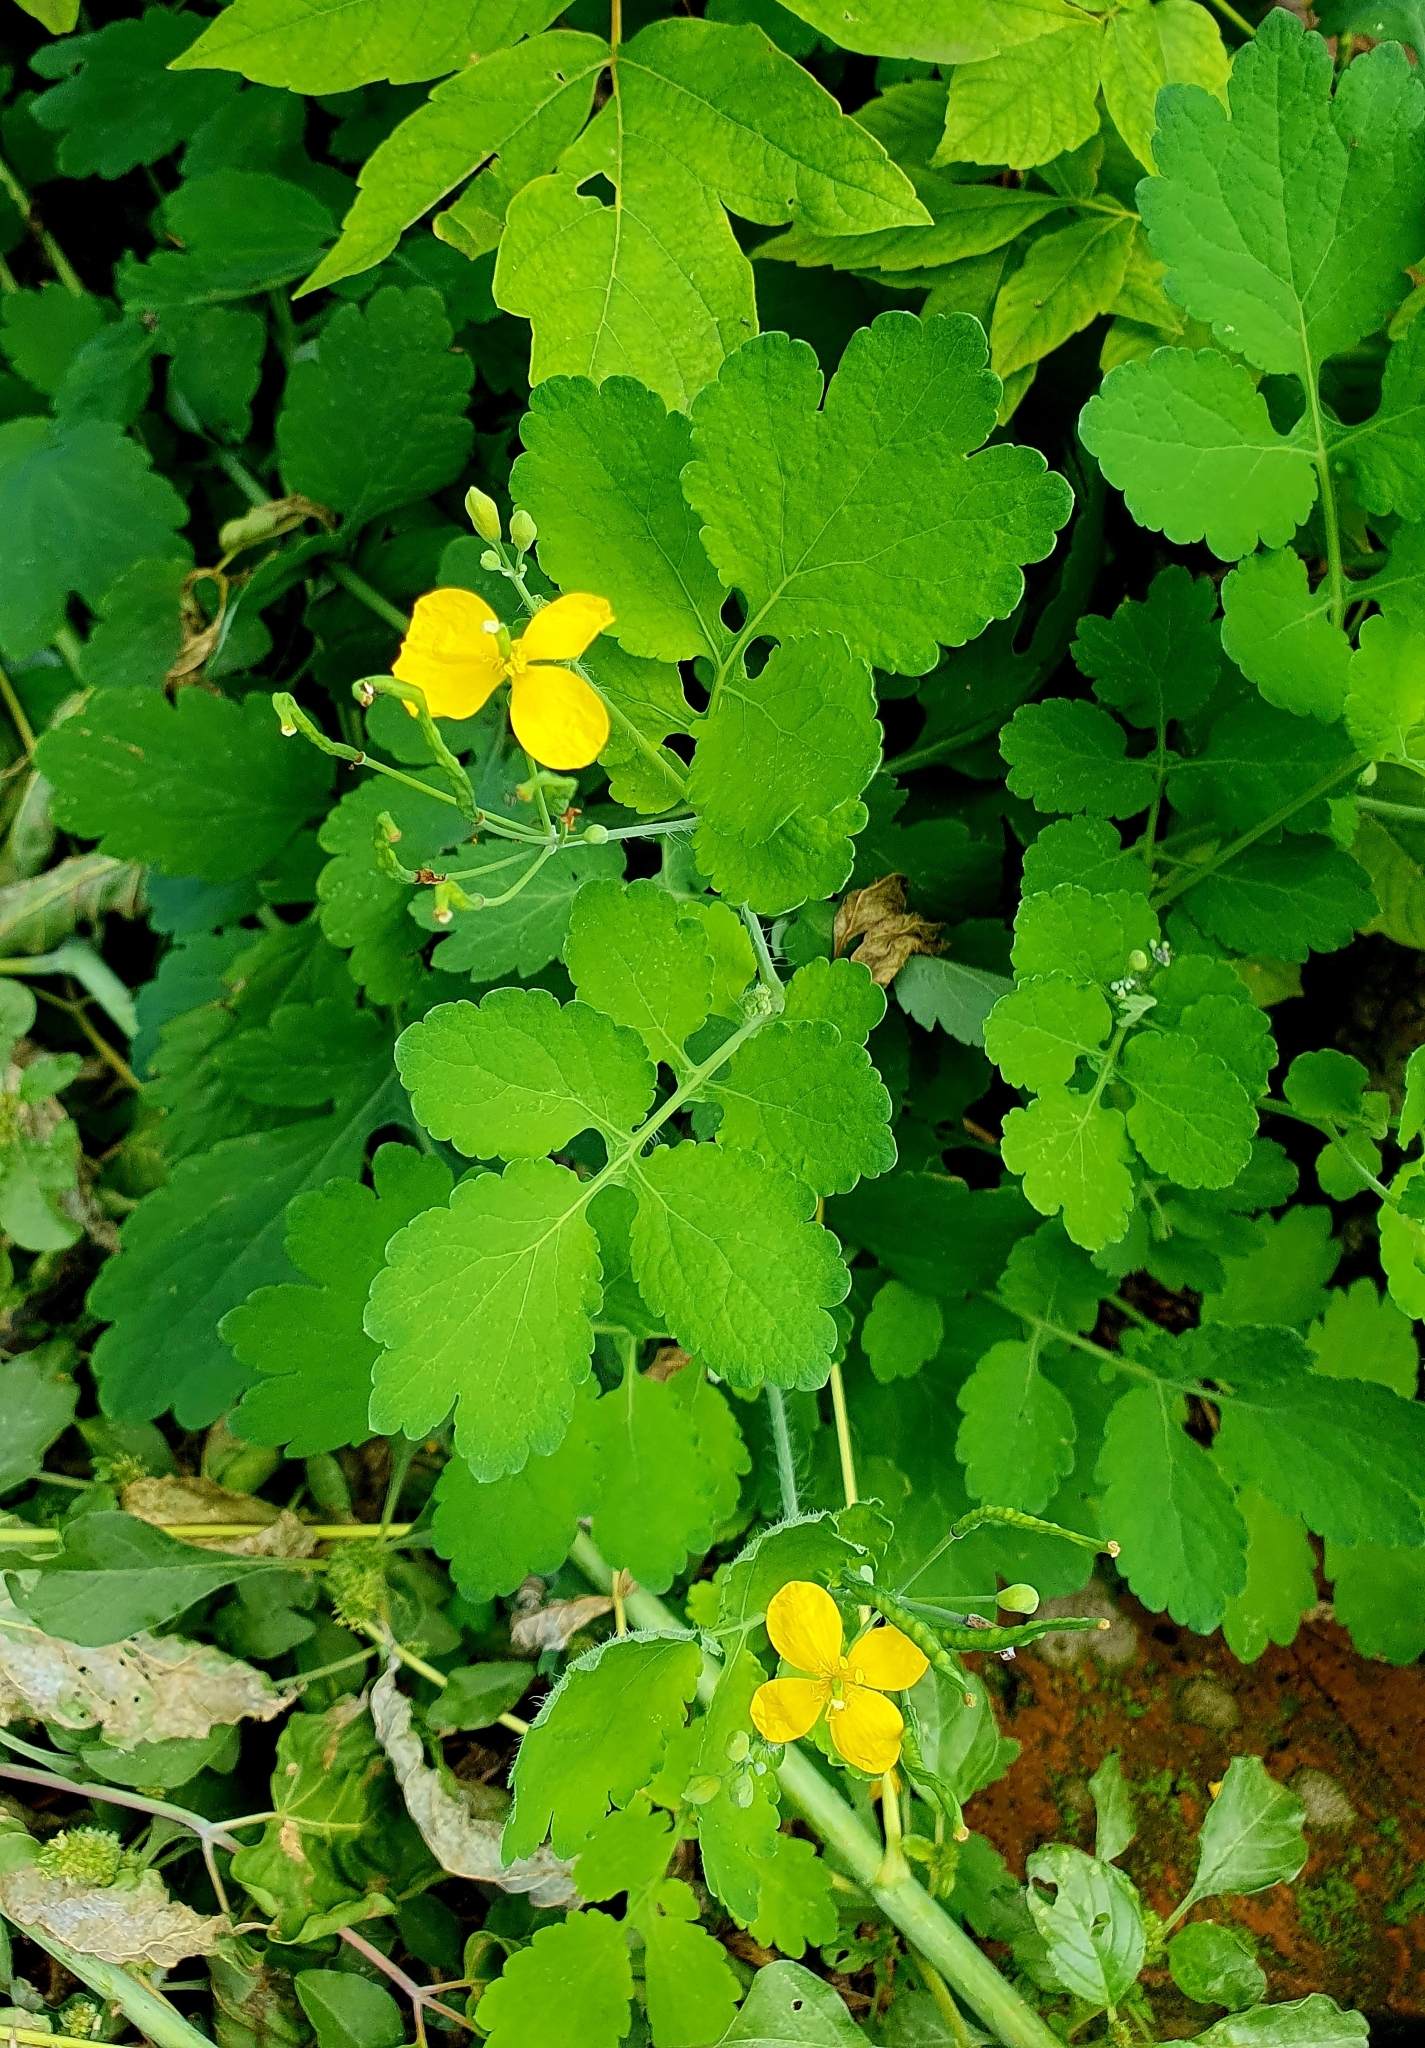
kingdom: Plantae
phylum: Tracheophyta
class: Magnoliopsida
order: Ranunculales
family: Papaveraceae
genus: Chelidonium
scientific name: Chelidonium majus
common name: Greater celandine
